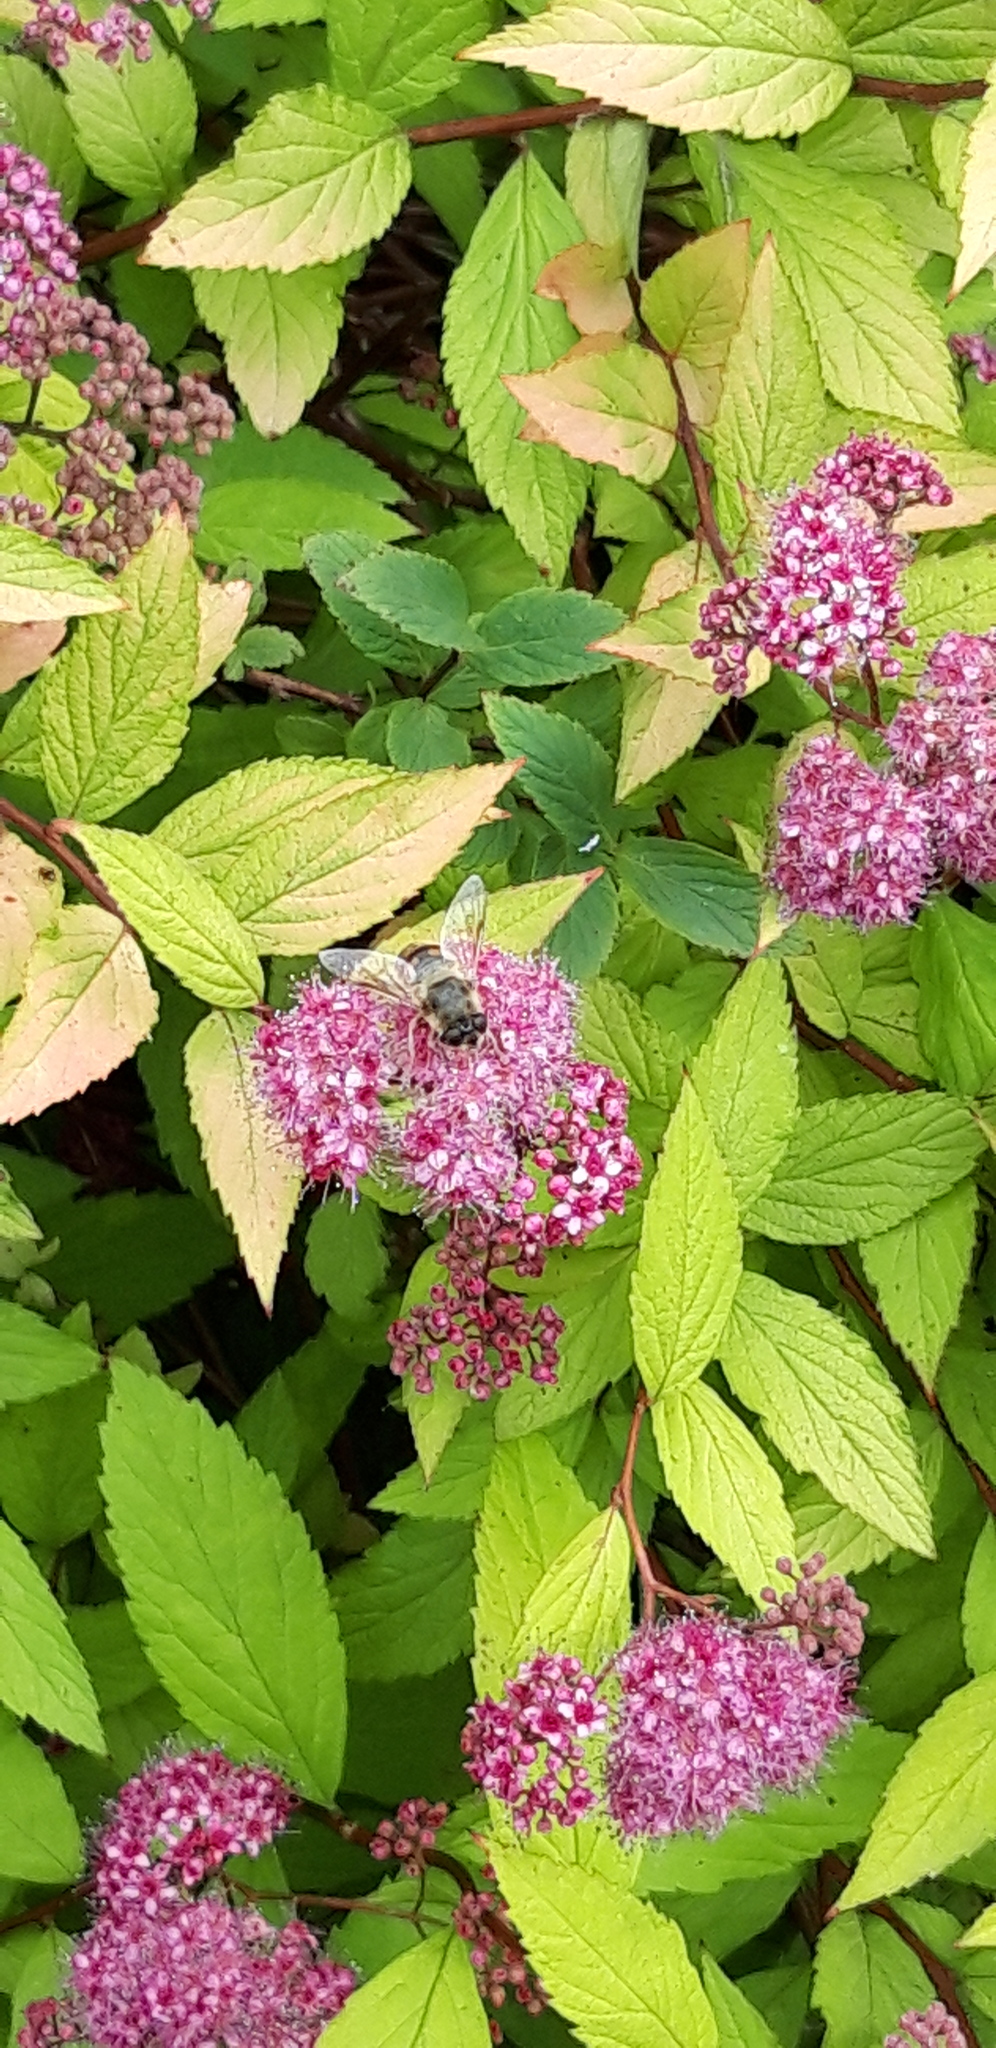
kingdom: Animalia
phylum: Arthropoda
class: Insecta
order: Diptera
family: Syrphidae
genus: Eristalis
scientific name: Eristalis tenax
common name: Drone fly
